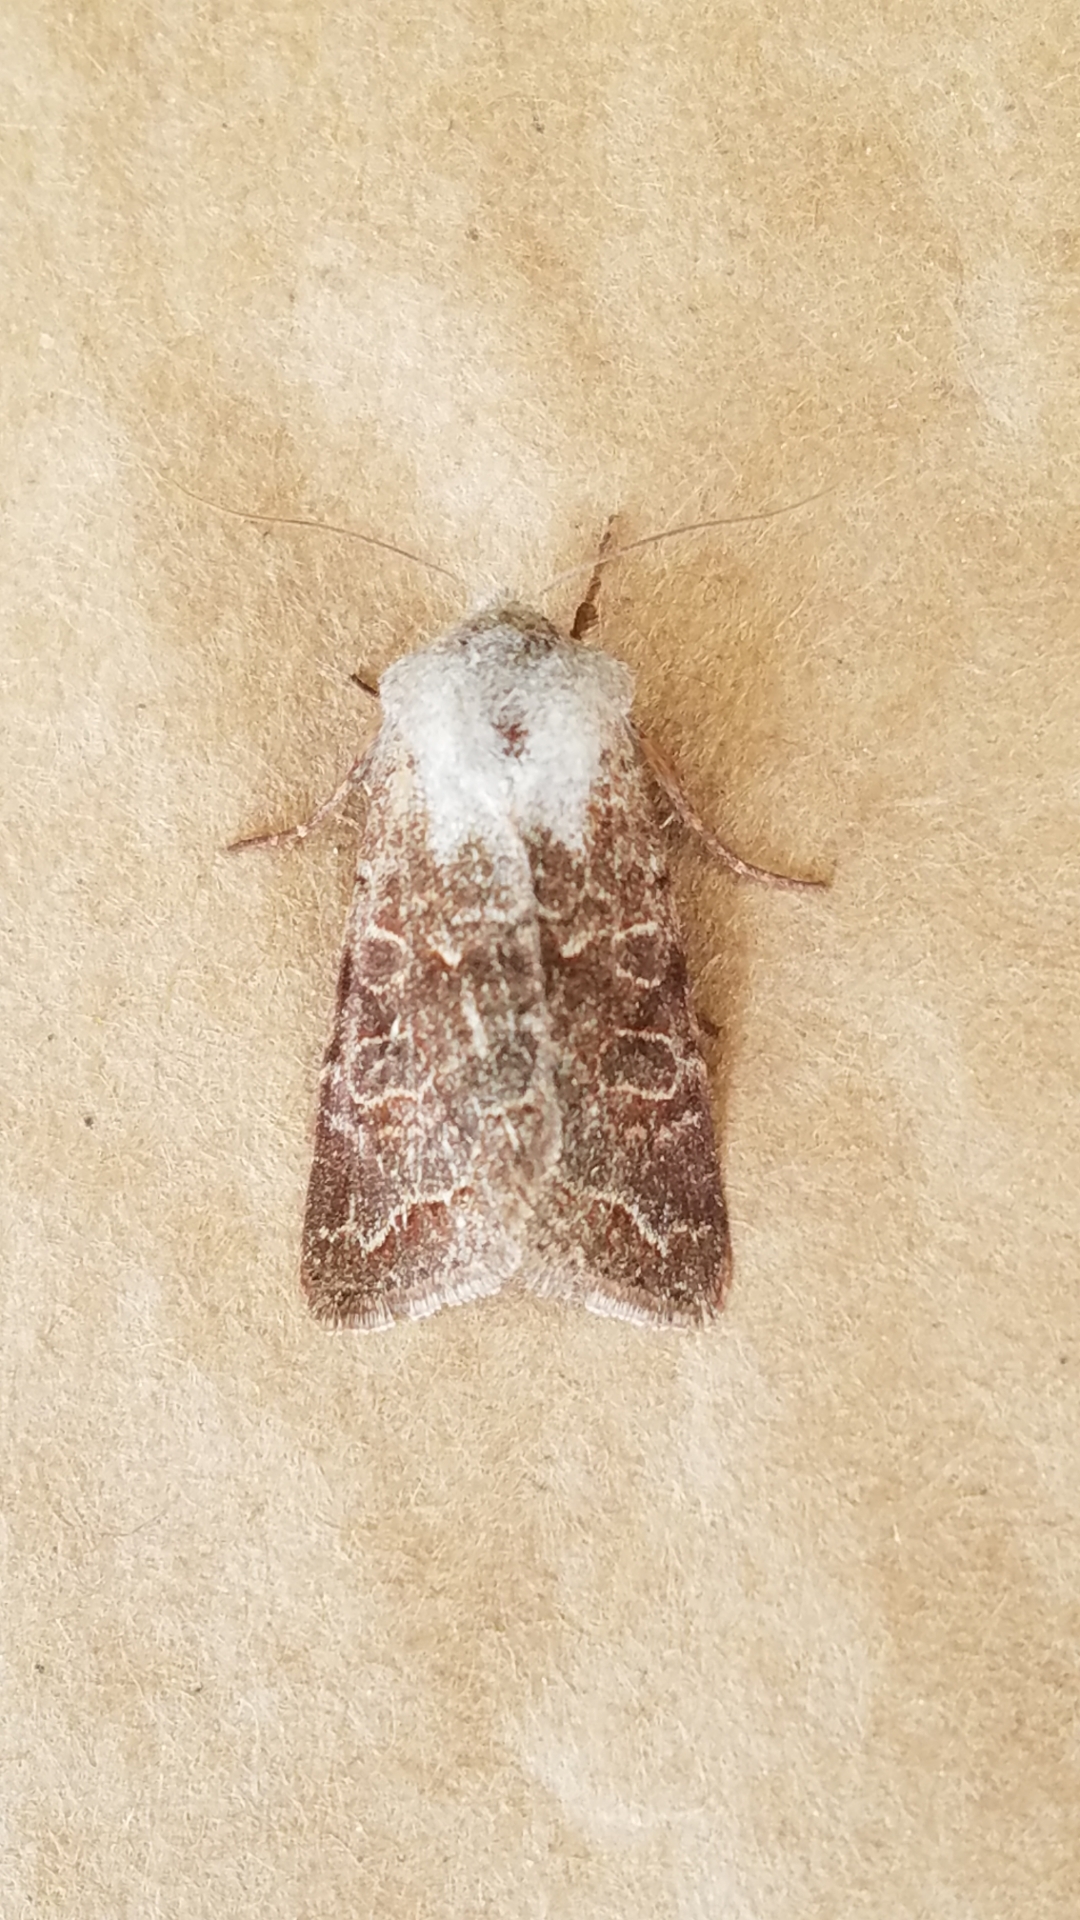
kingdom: Animalia
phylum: Arthropoda
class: Insecta
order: Lepidoptera
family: Noctuidae
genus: Orthosia
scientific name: Orthosia hibisci
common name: Green fruitworm
